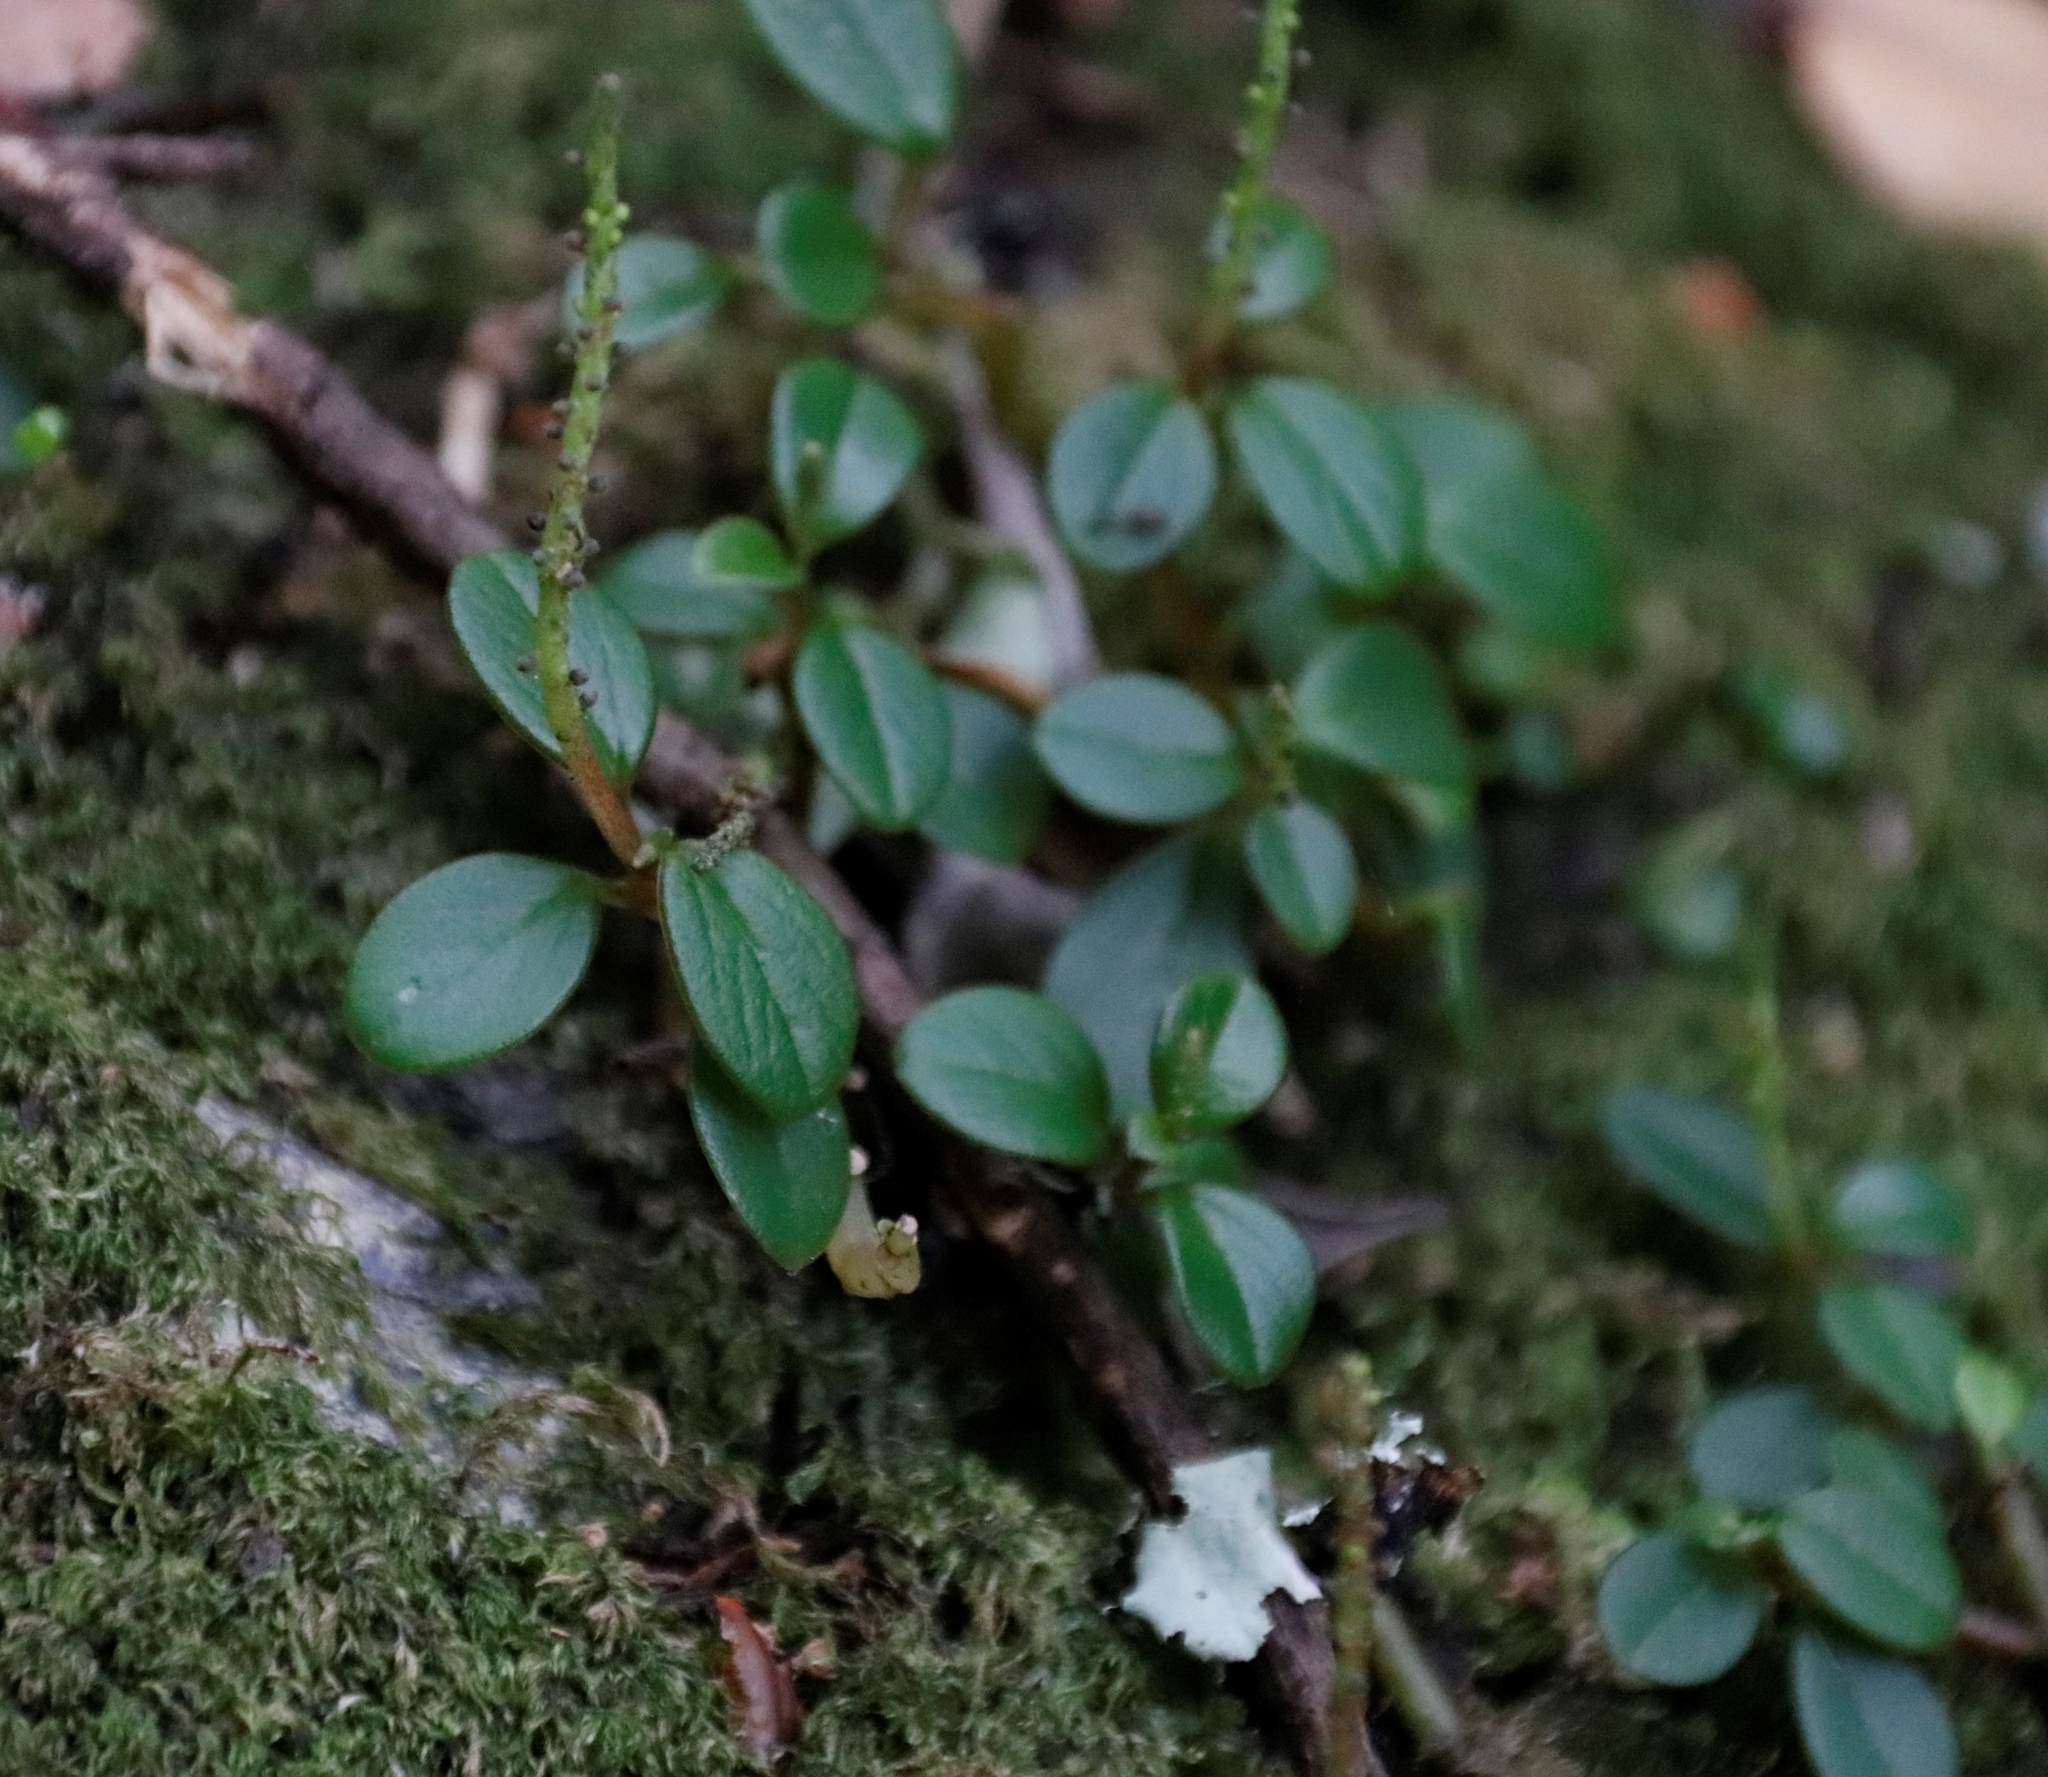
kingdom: Plantae
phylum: Tracheophyta
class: Magnoliopsida
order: Piperales
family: Piperaceae
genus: Peperomia
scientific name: Peperomia retusa
